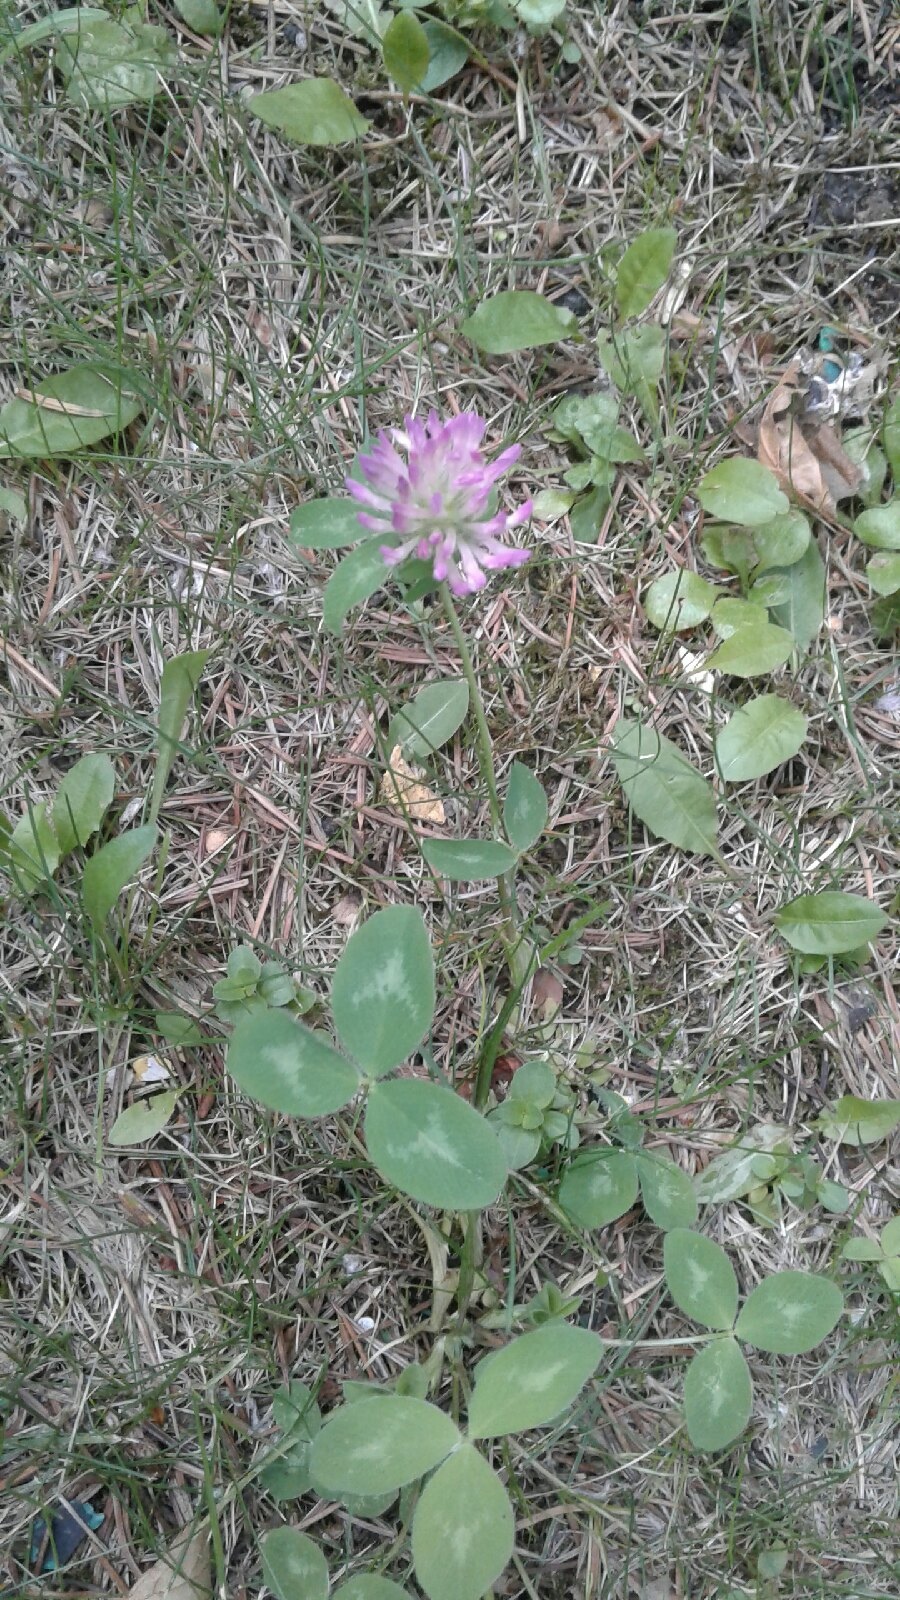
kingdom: Plantae
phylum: Tracheophyta
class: Magnoliopsida
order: Fabales
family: Fabaceae
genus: Trifolium
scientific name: Trifolium pratense
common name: Red clover
